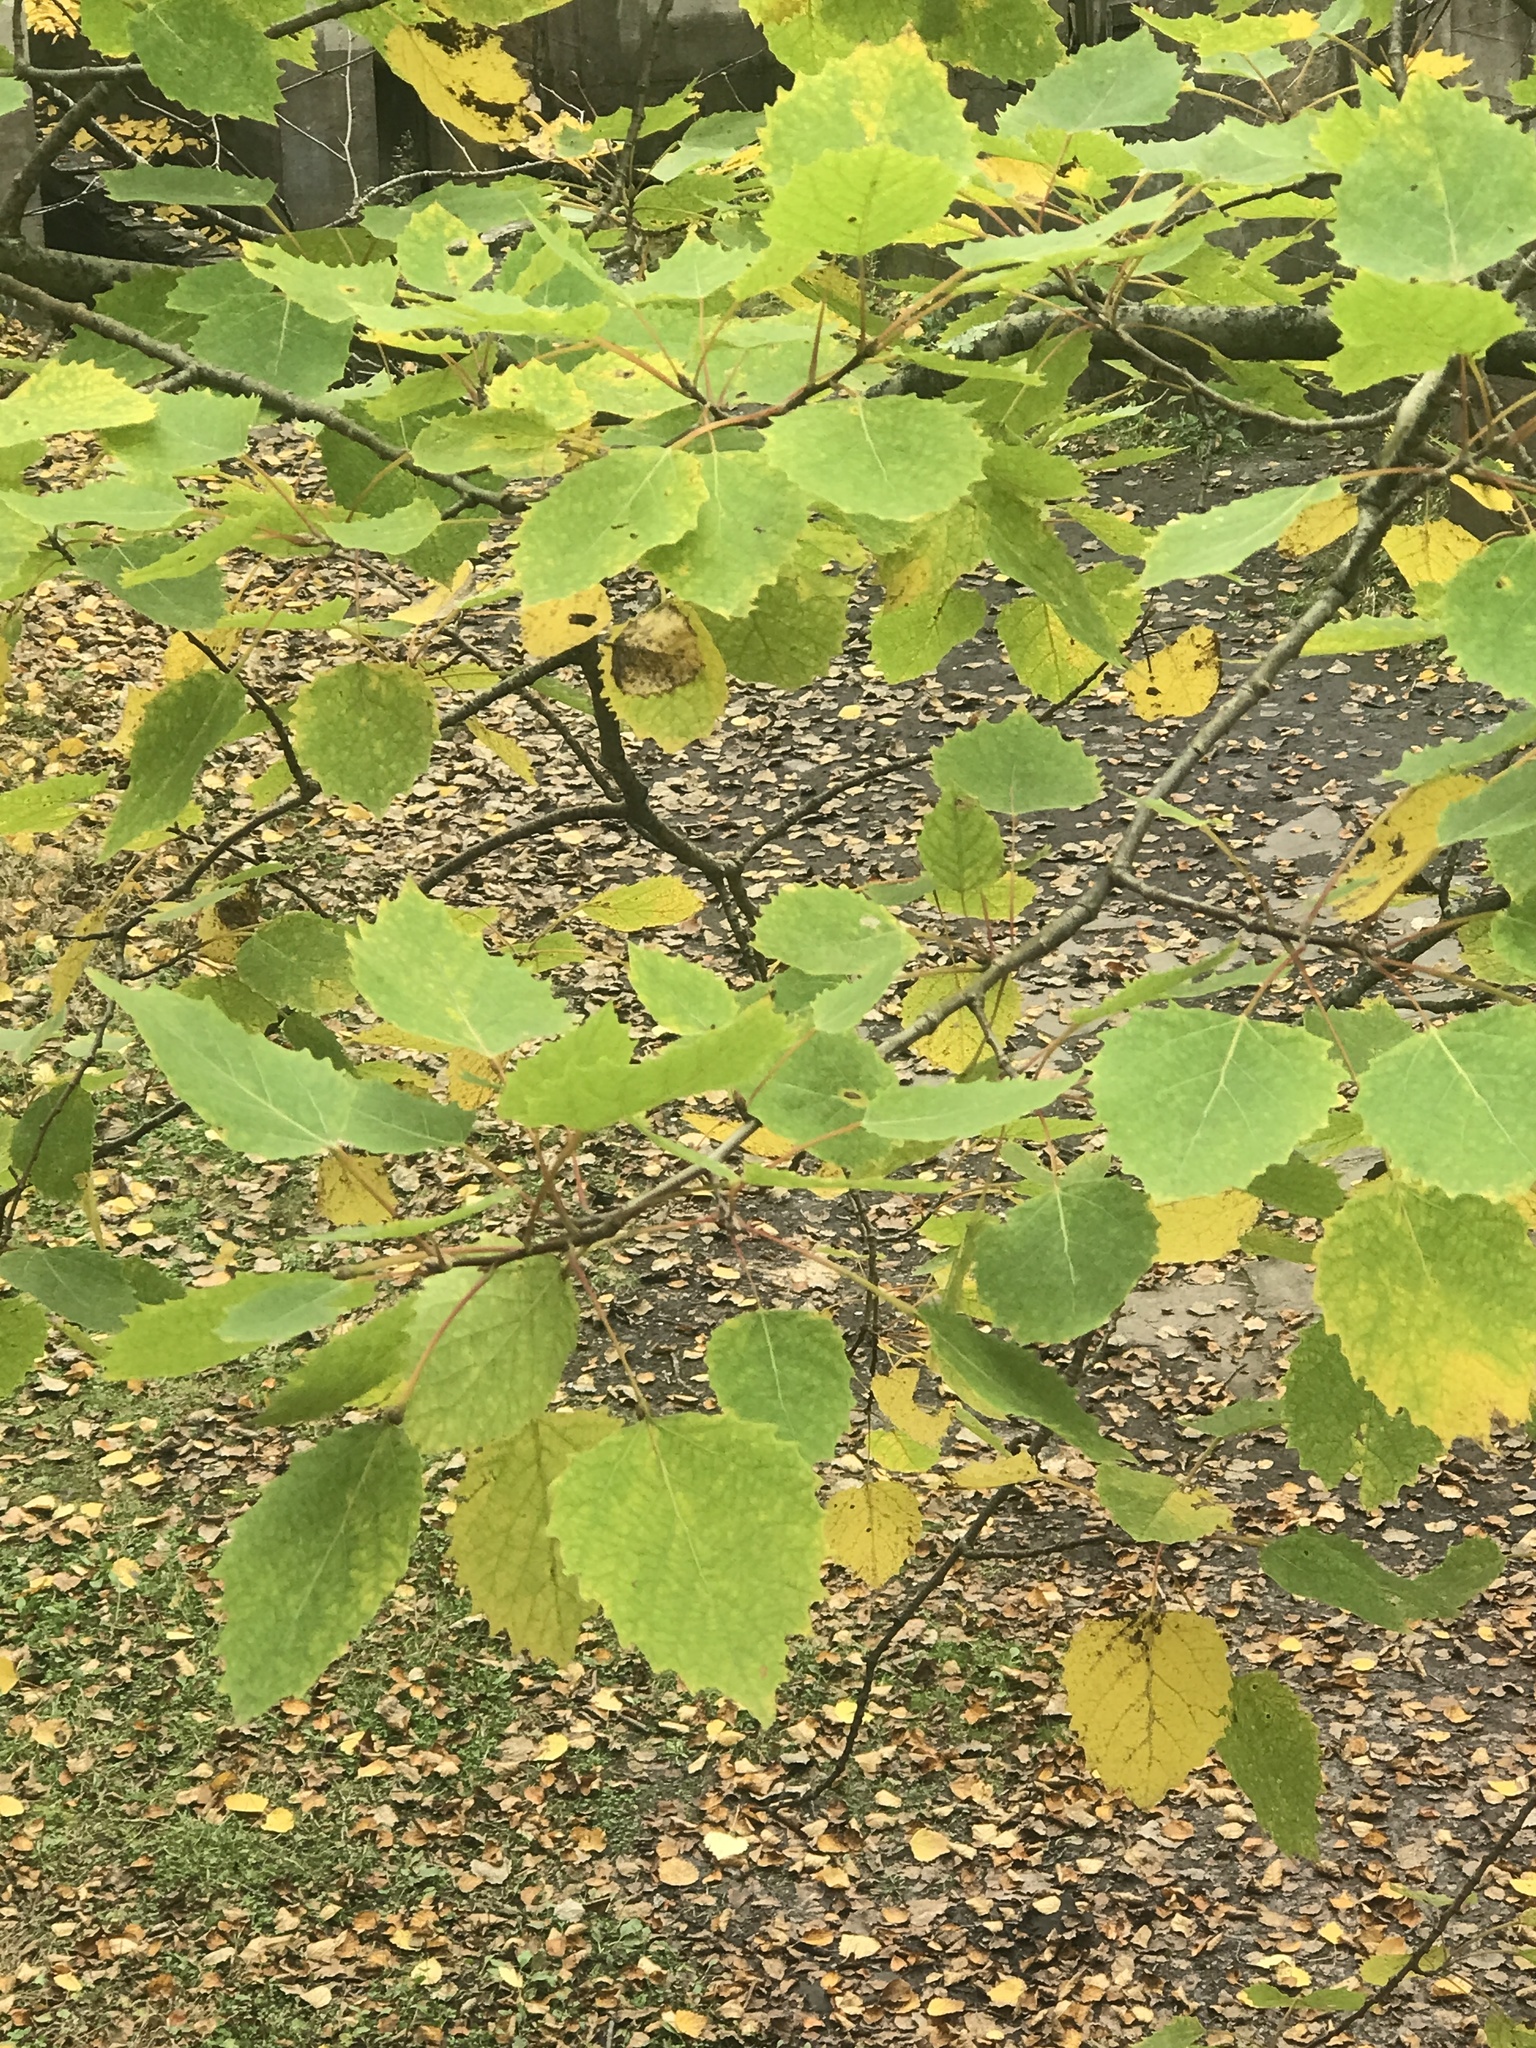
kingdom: Plantae
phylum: Tracheophyta
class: Magnoliopsida
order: Malpighiales
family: Salicaceae
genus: Populus
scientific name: Populus grandidentata
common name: Bigtooth aspen
